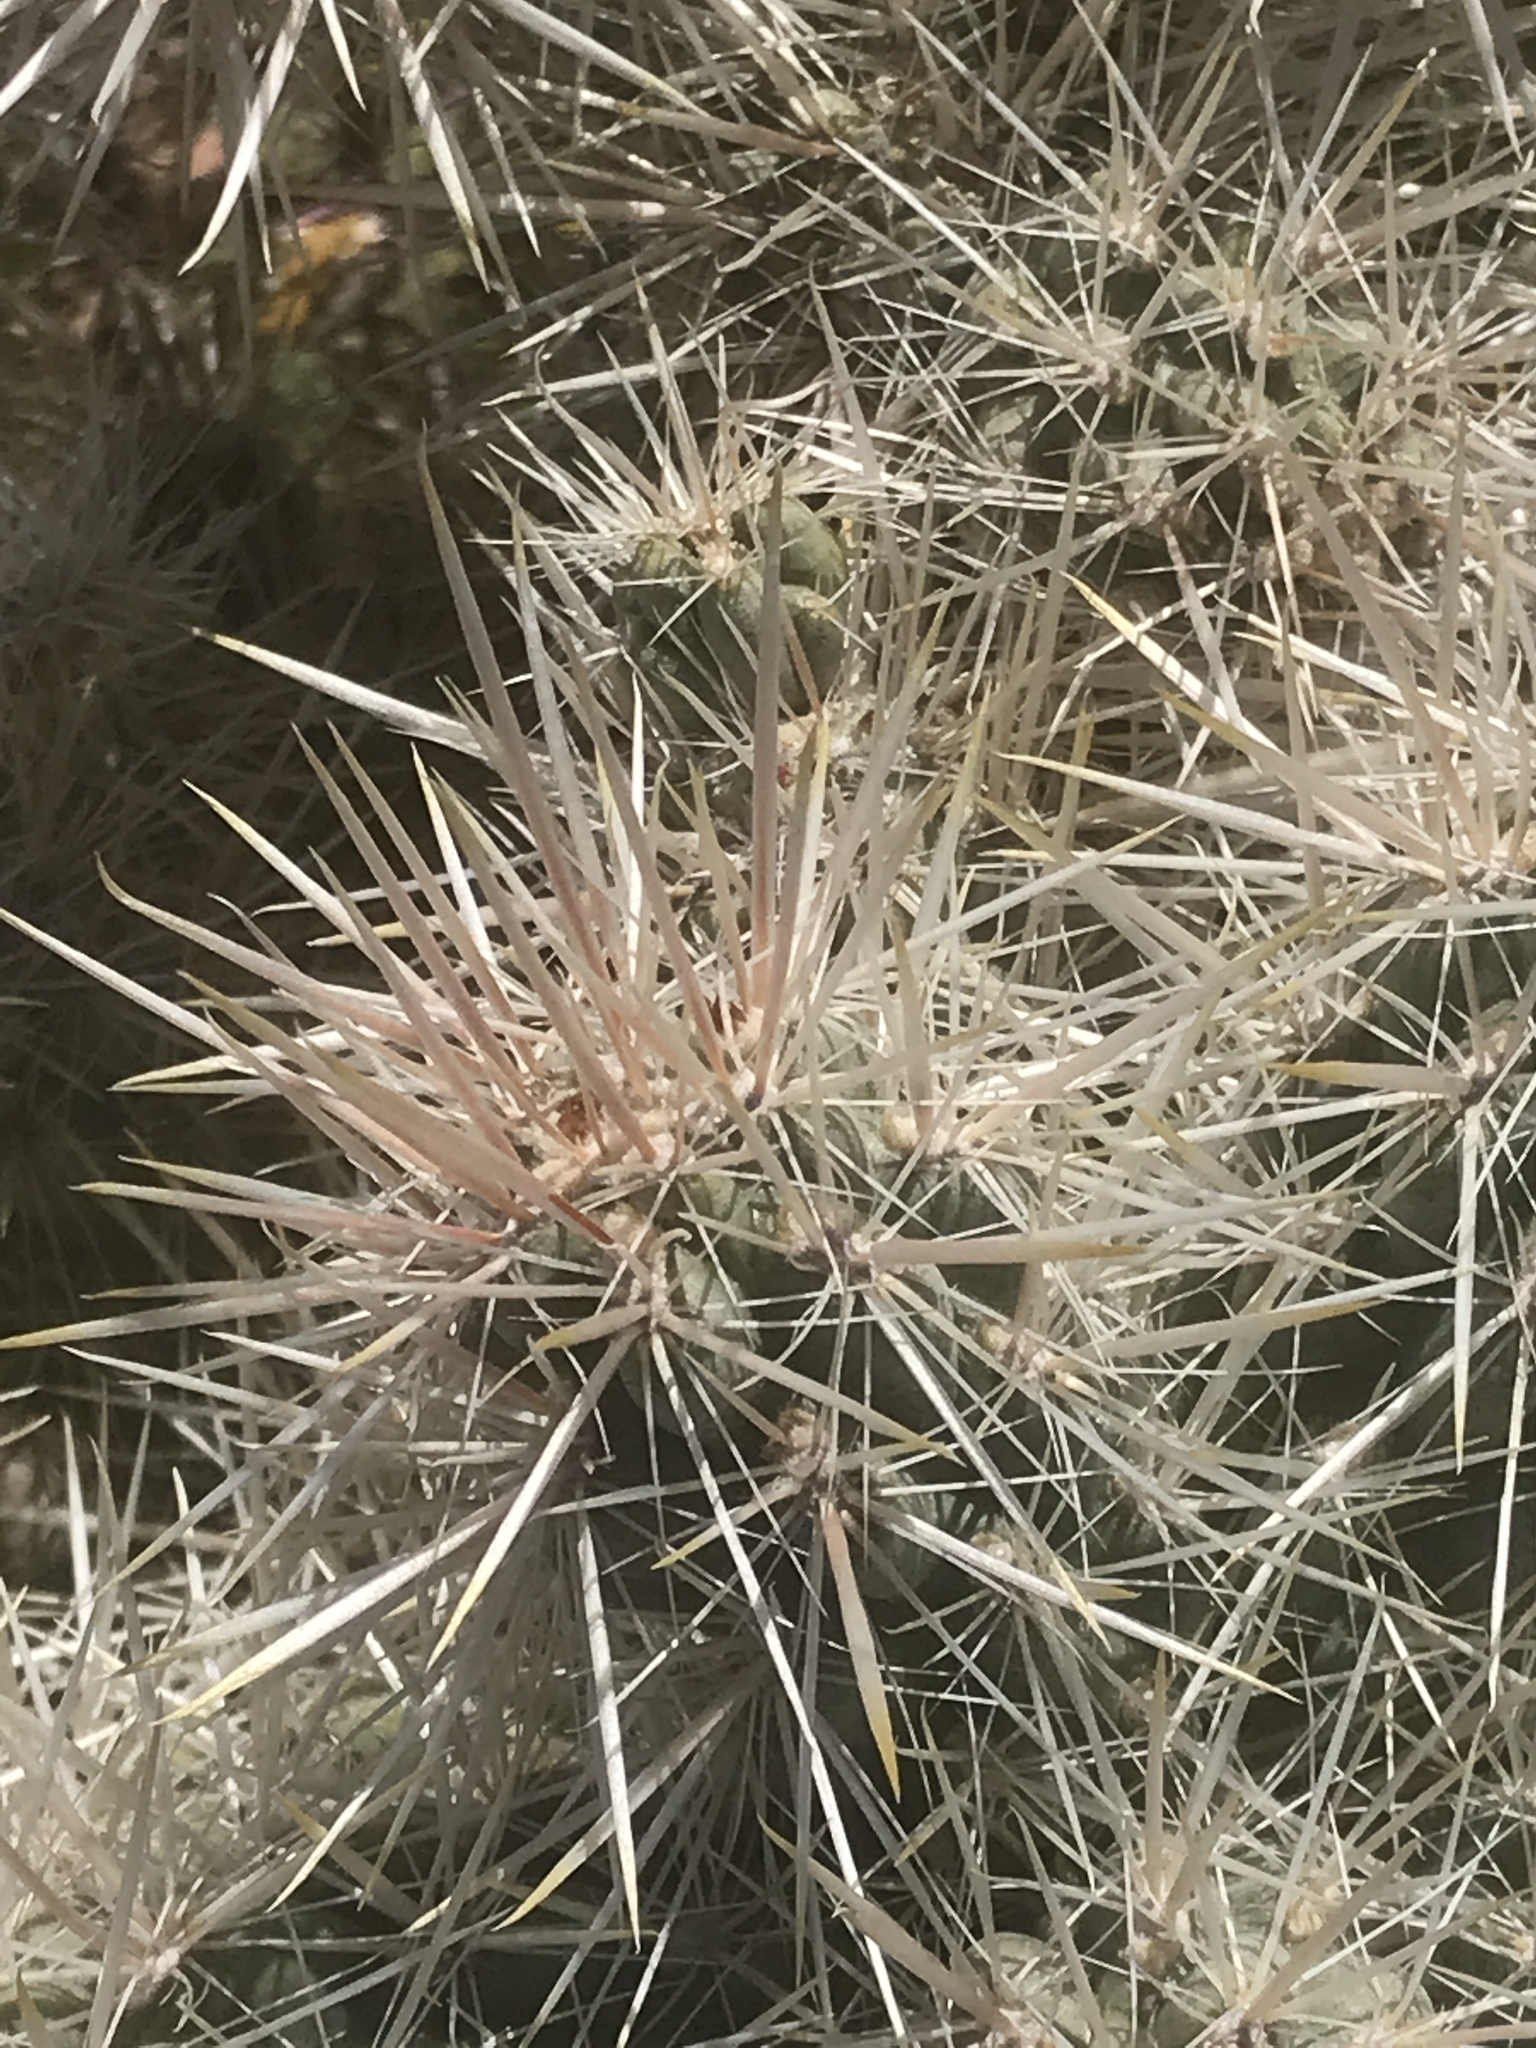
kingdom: Plantae
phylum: Tracheophyta
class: Magnoliopsida
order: Caryophyllales
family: Cactaceae
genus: Cylindropuntia
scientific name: Cylindropuntia echinocarpa
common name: Ground cholla
